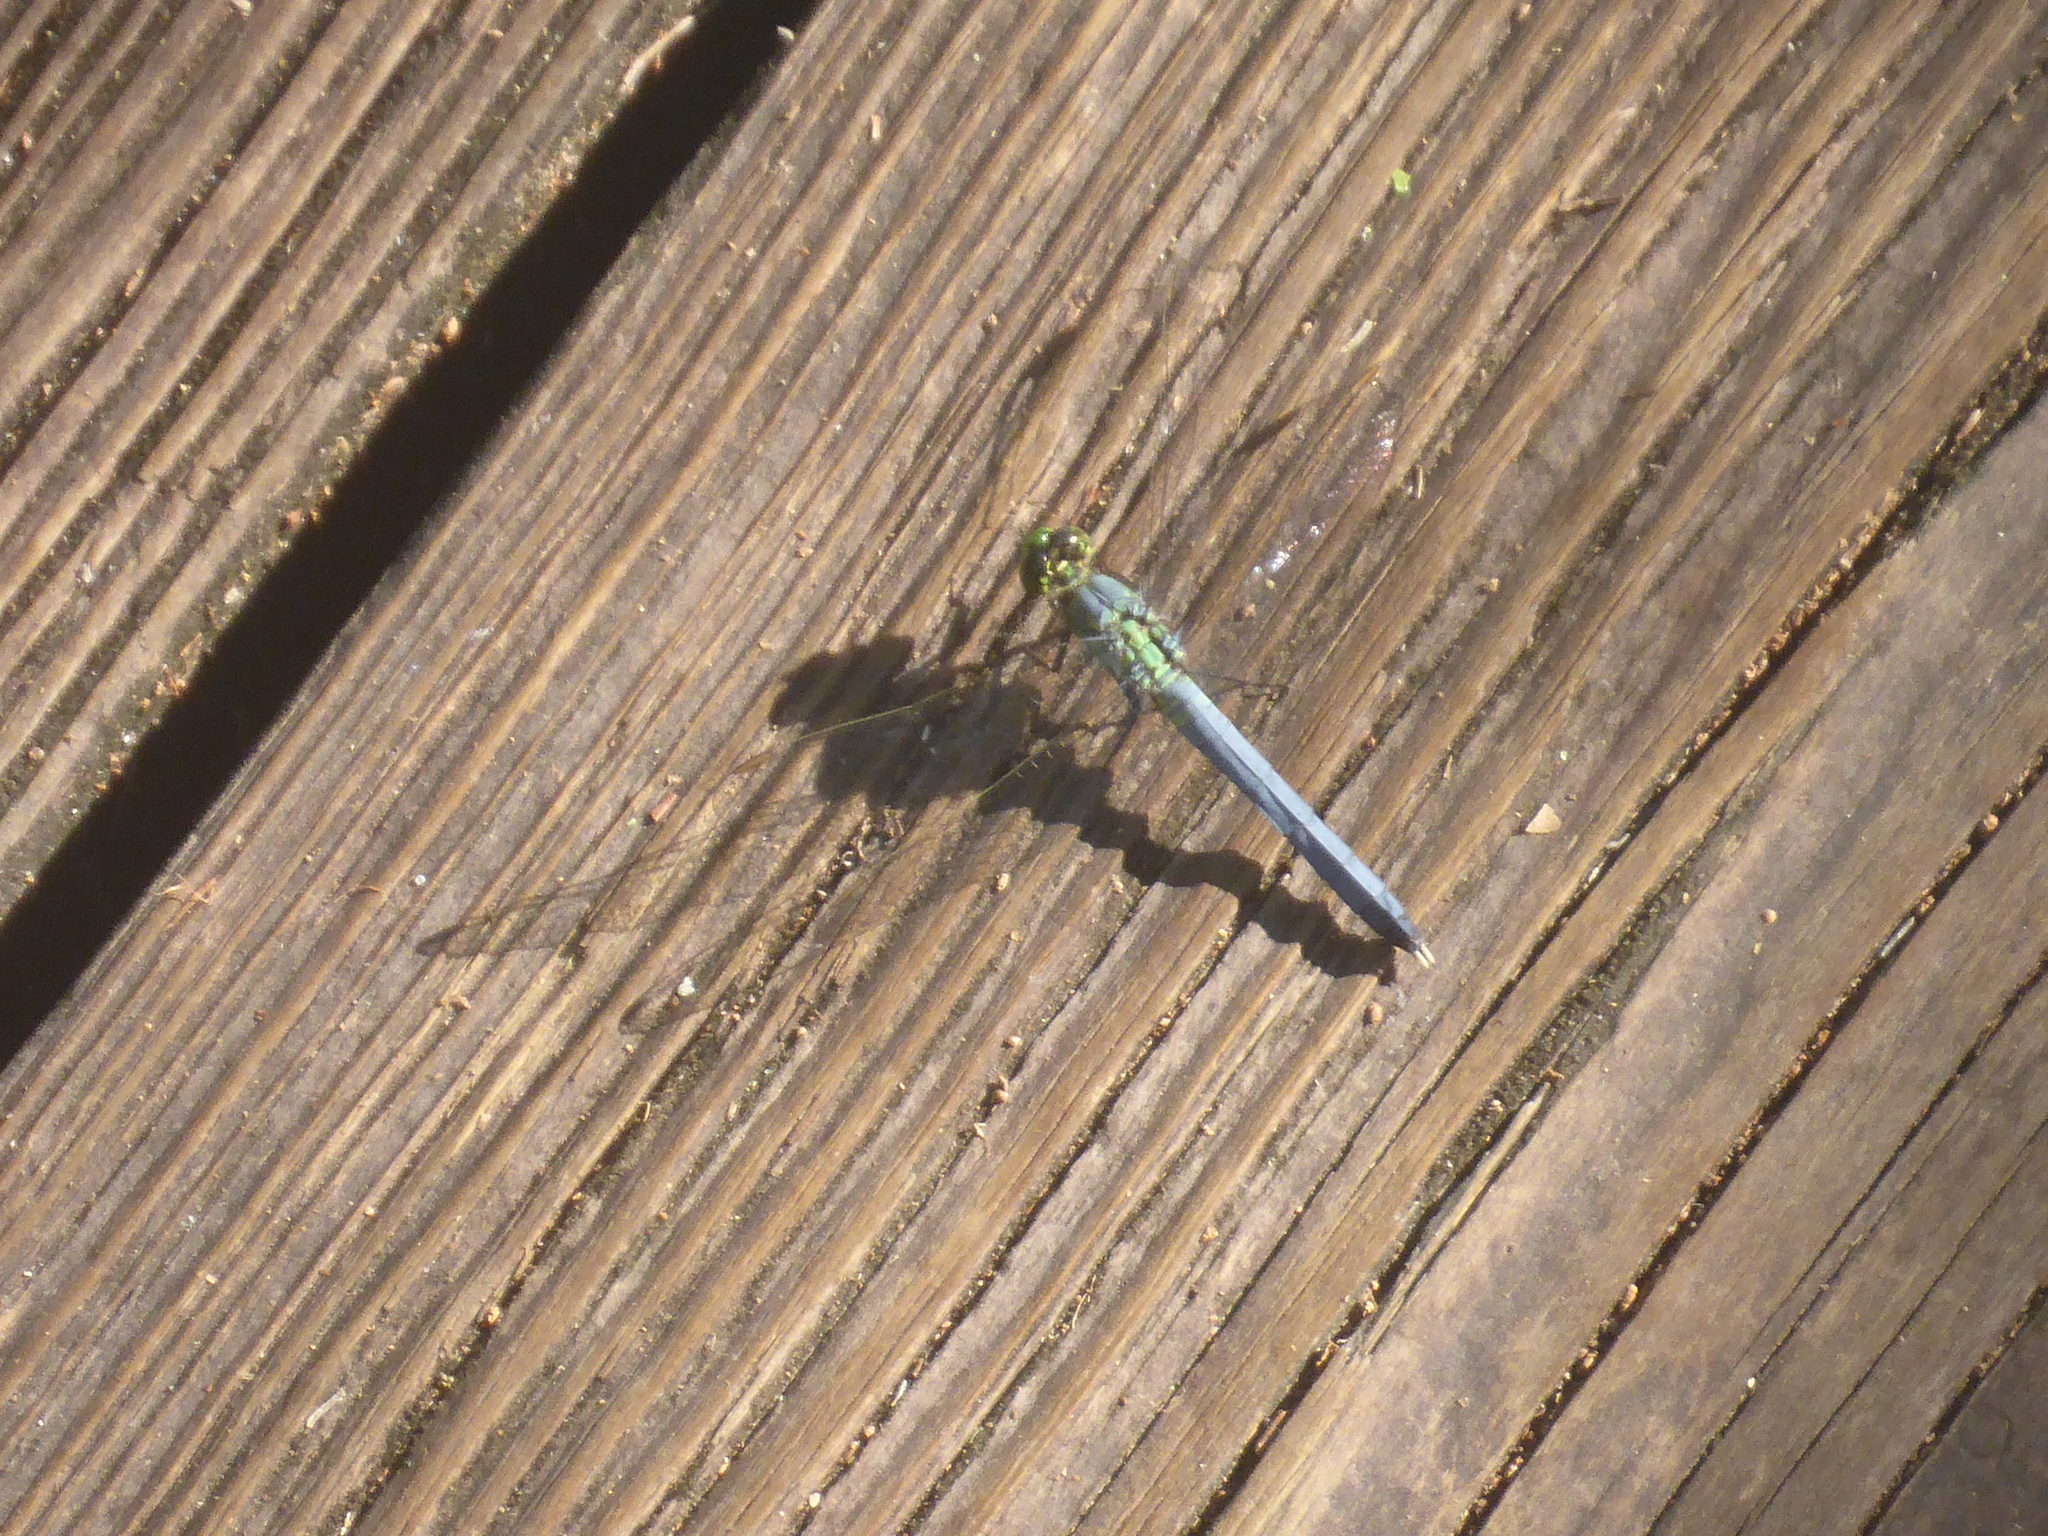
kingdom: Animalia
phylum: Arthropoda
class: Insecta
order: Odonata
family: Libellulidae
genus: Erythemis
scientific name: Erythemis simplicicollis
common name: Eastern pondhawk
